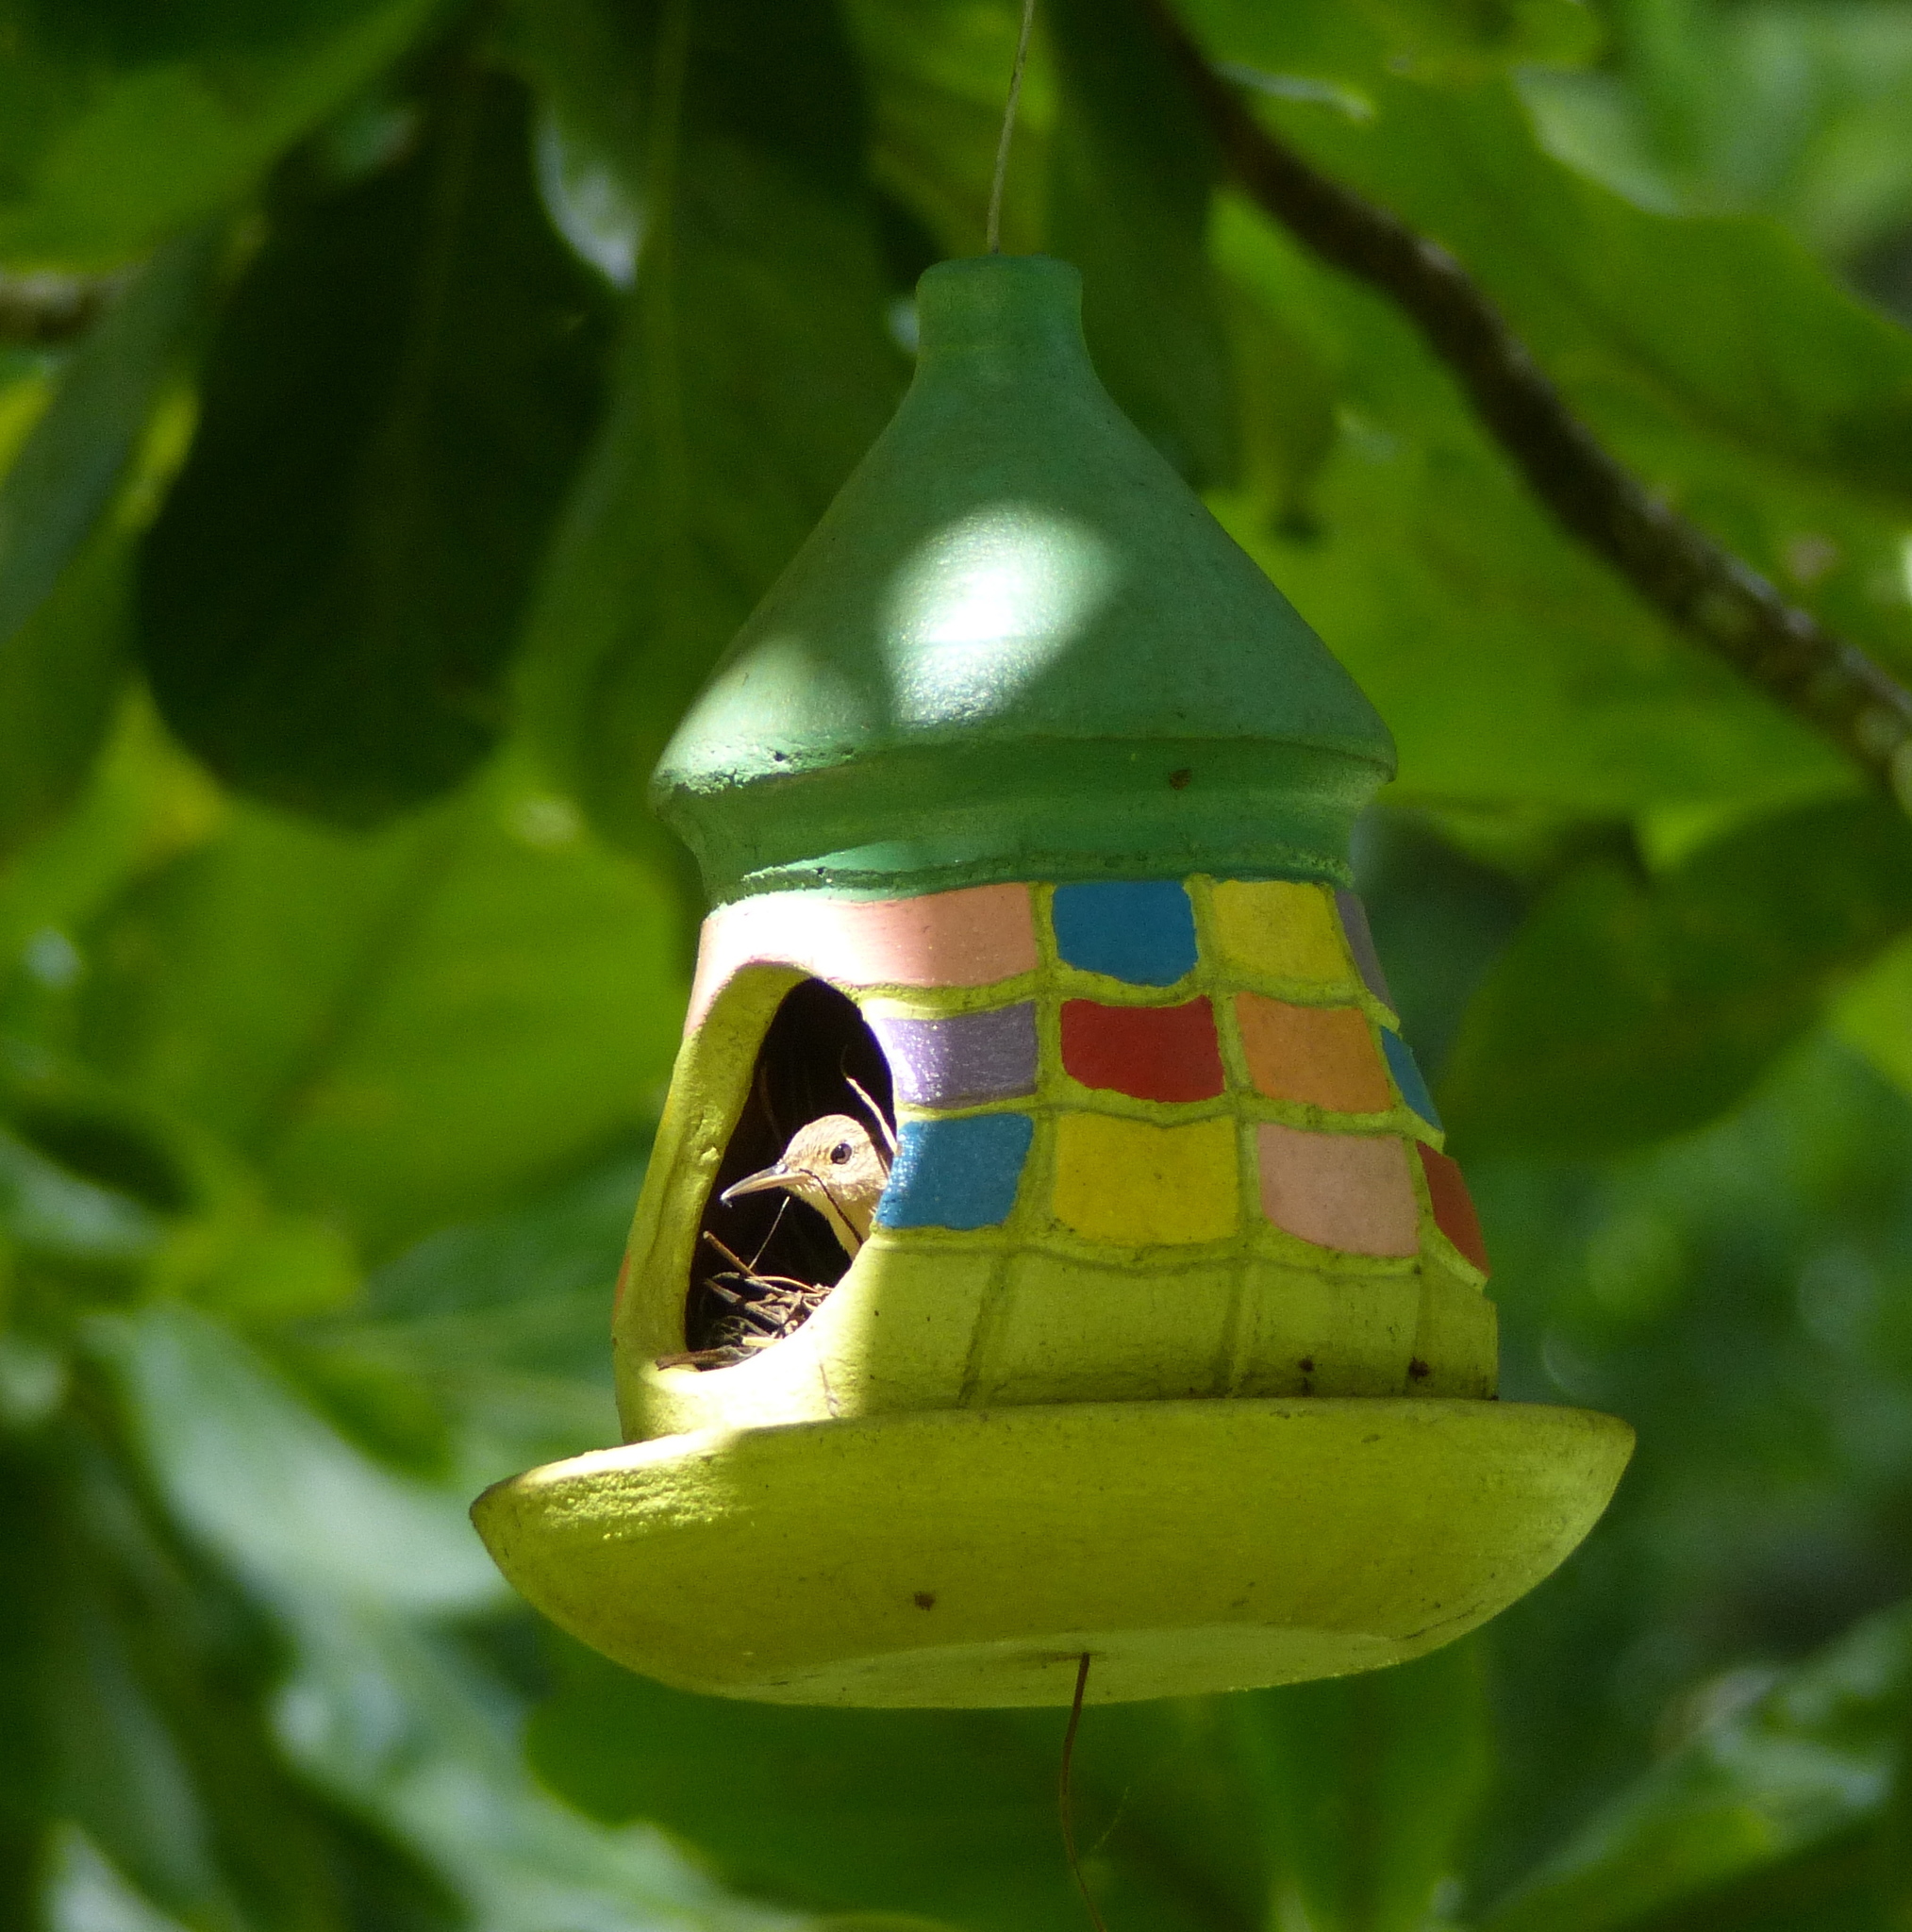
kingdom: Animalia
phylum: Chordata
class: Aves
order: Passeriformes
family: Troglodytidae
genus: Troglodytes
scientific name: Troglodytes aedon
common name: House wren
